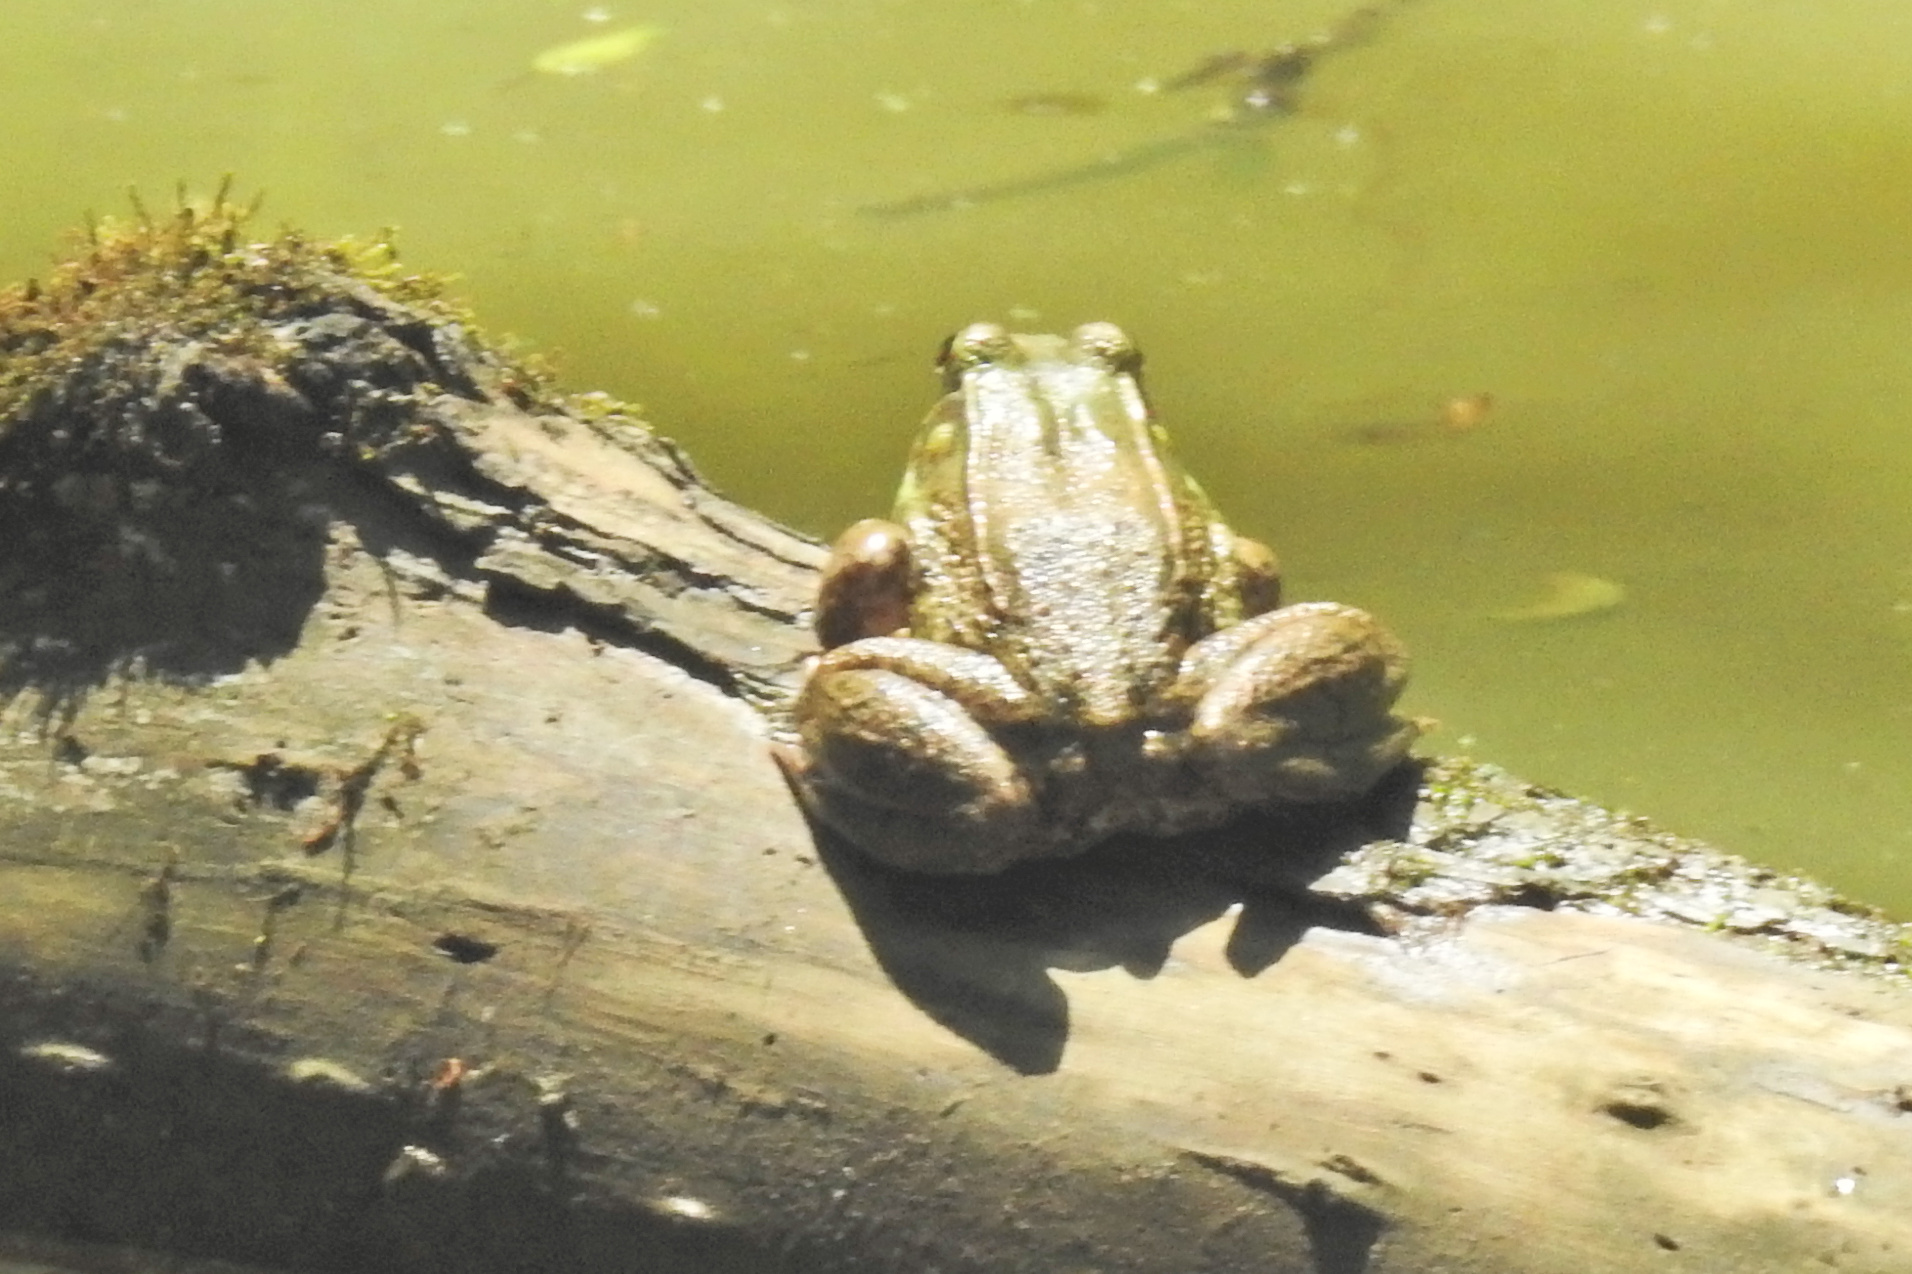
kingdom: Animalia
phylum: Chordata
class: Amphibia
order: Anura
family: Ranidae
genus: Lithobates
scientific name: Lithobates clamitans
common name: Green frog
